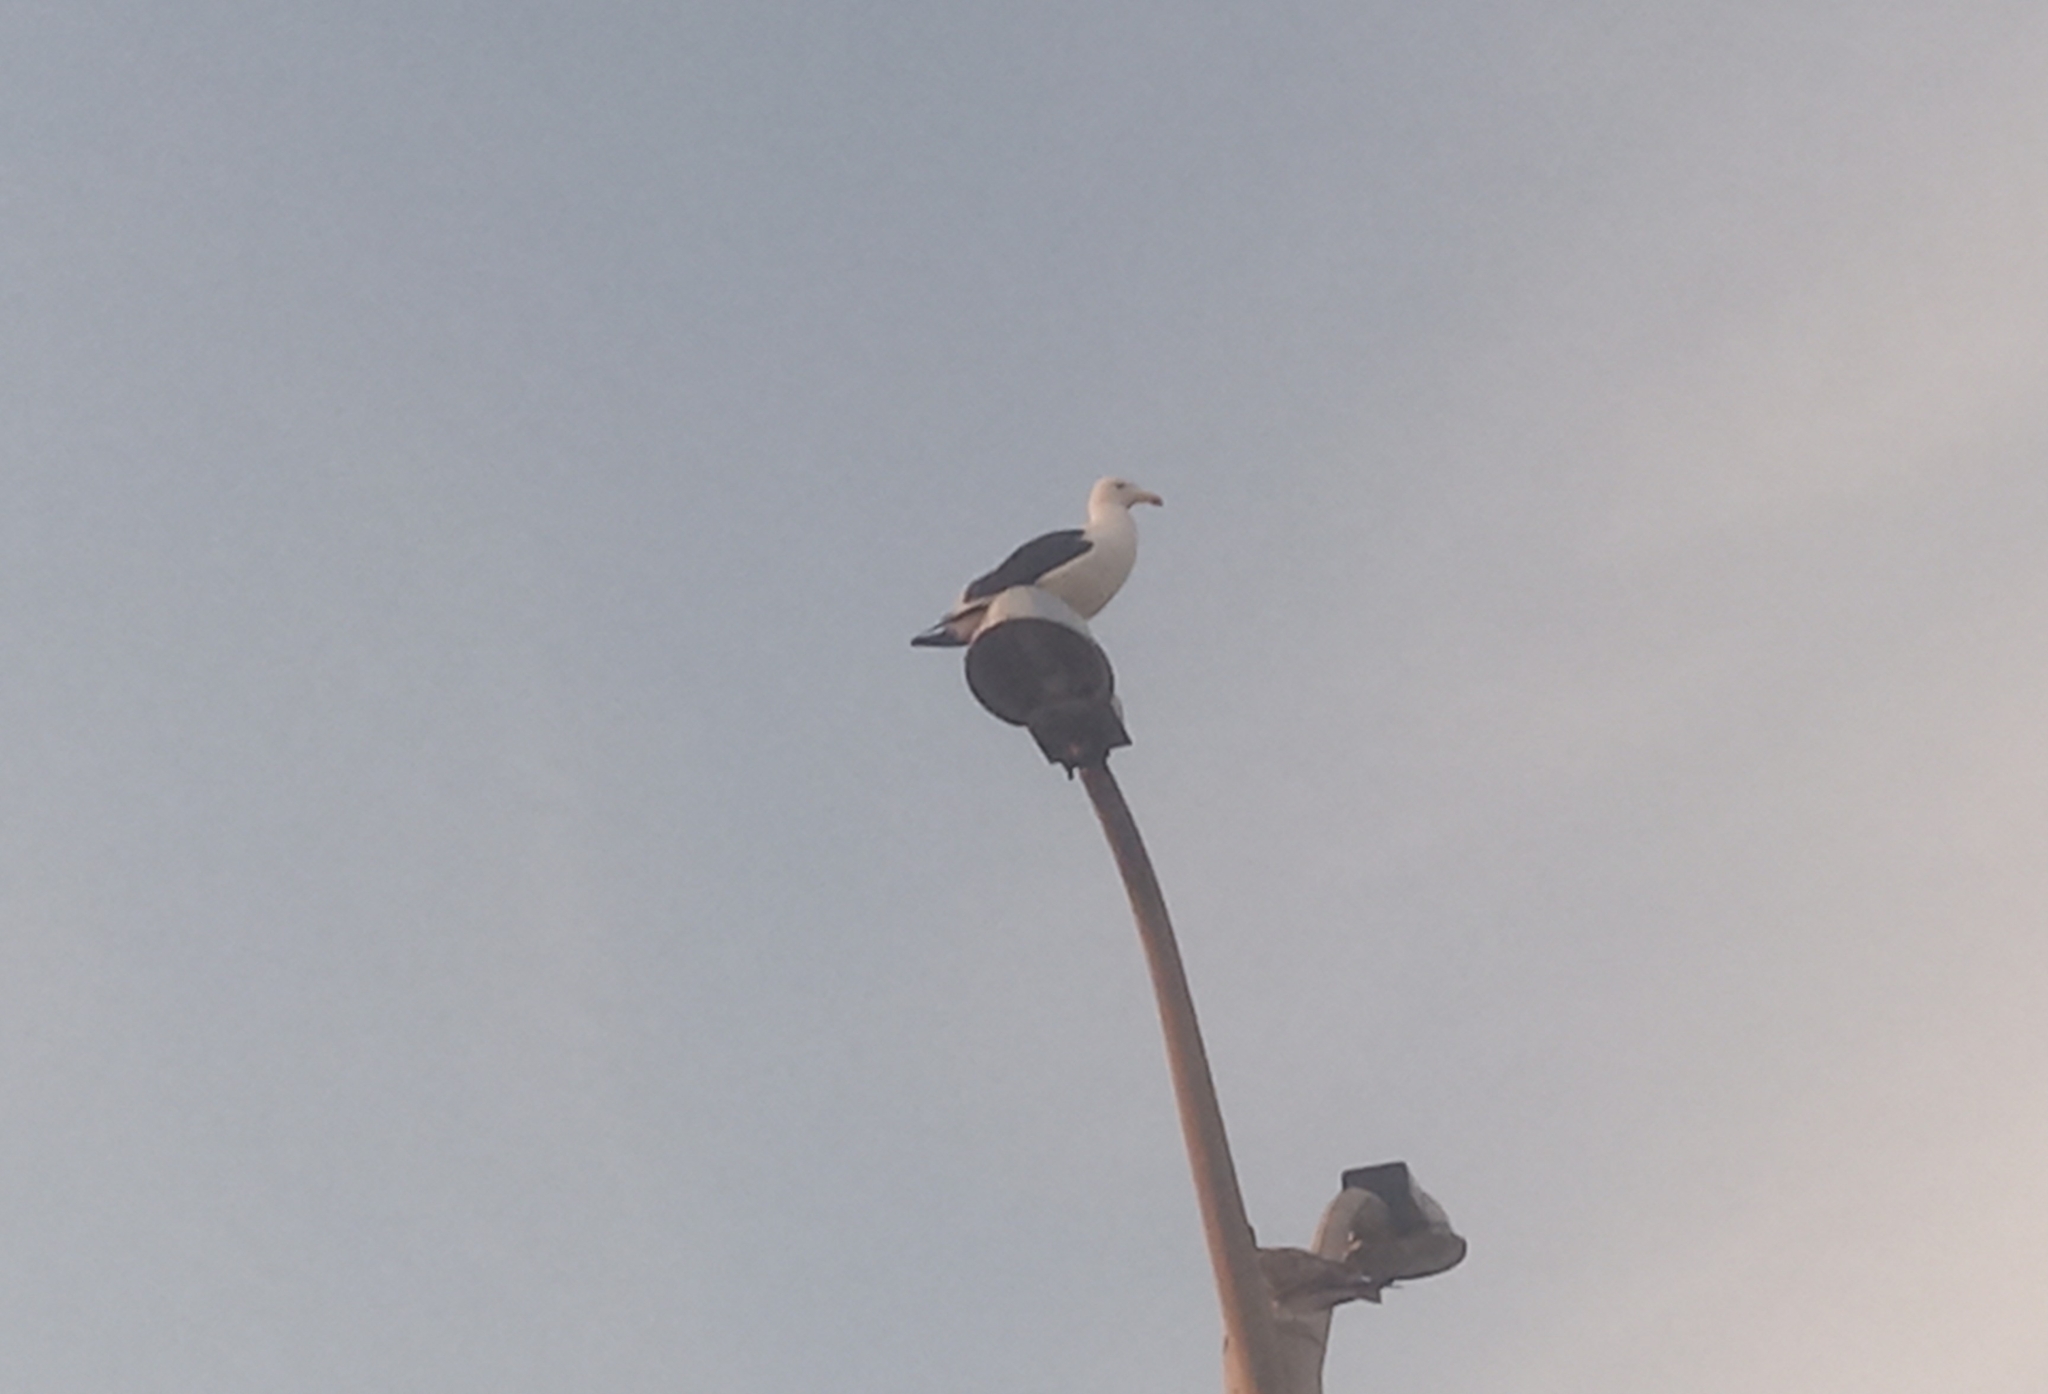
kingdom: Animalia
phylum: Chordata
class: Aves
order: Charadriiformes
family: Laridae
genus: Larus
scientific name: Larus dominicanus
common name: Kelp gull
